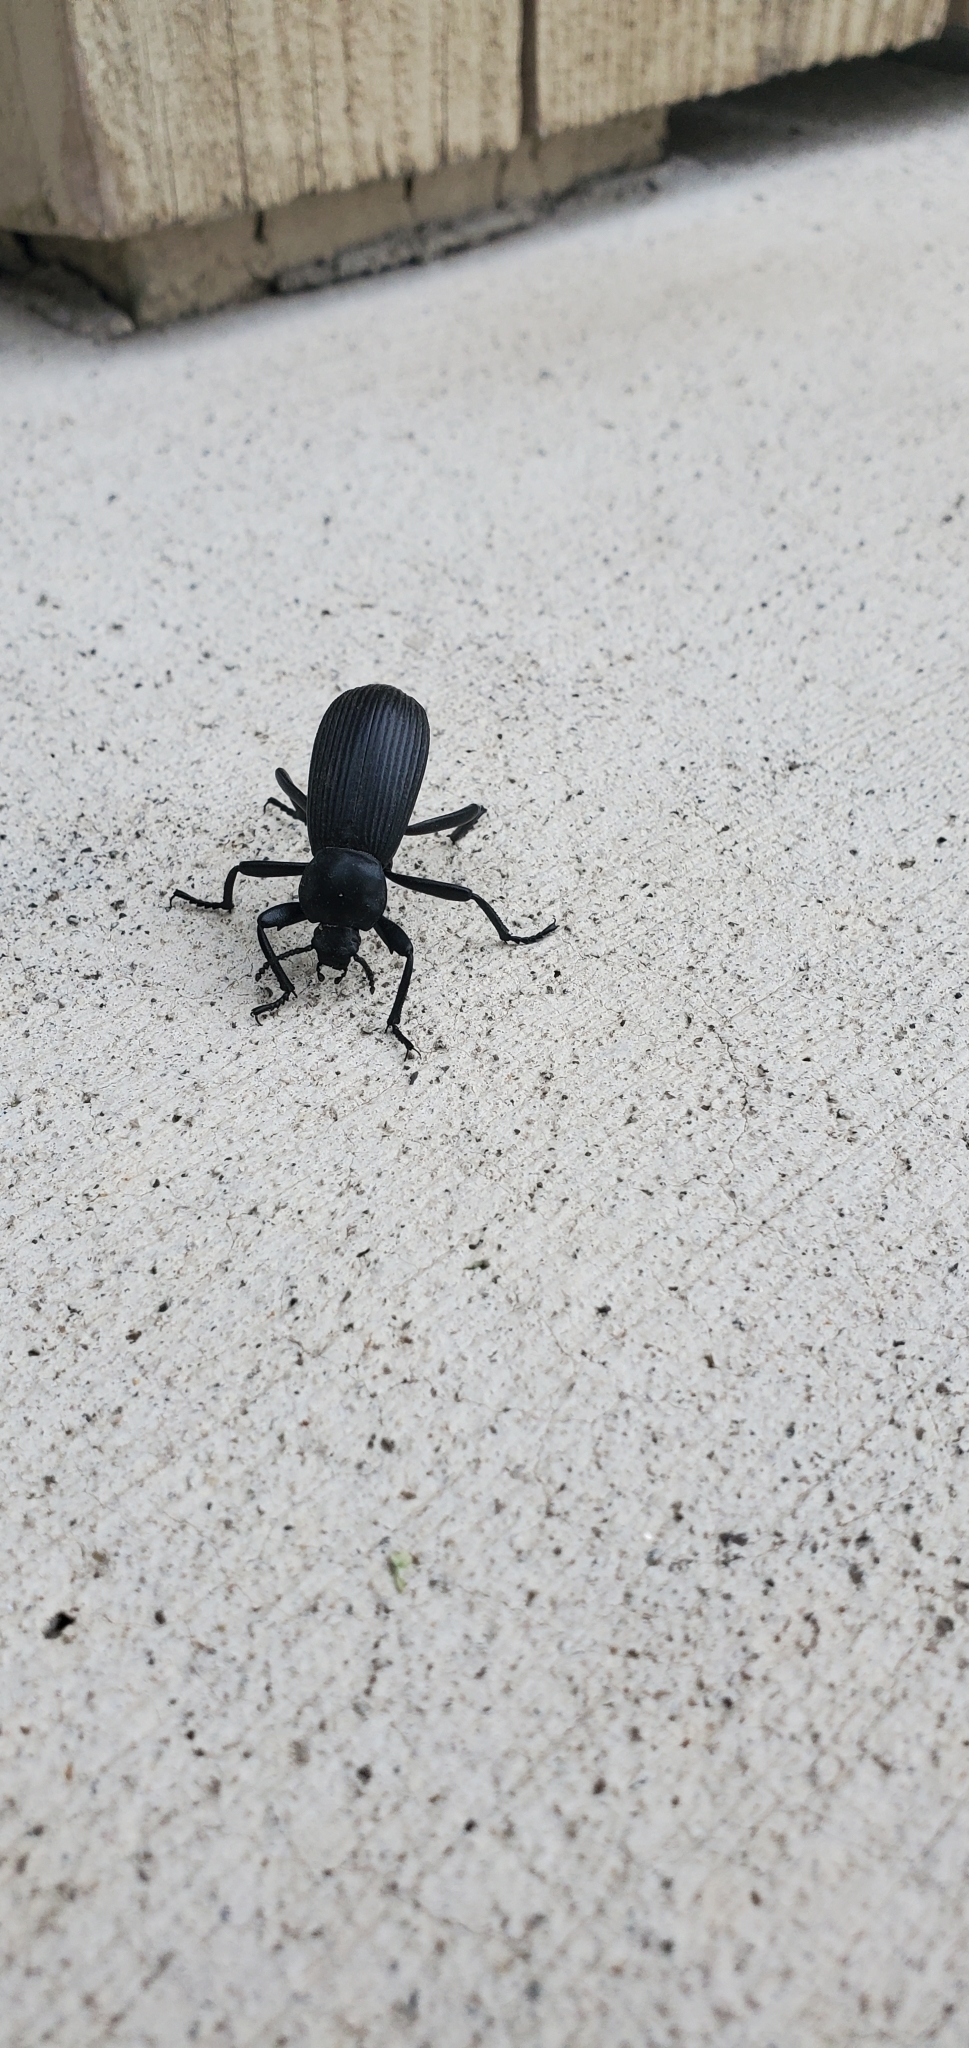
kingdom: Animalia
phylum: Arthropoda
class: Insecta
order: Coleoptera
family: Tenebrionidae
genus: Eleodes
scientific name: Eleodes obscura
